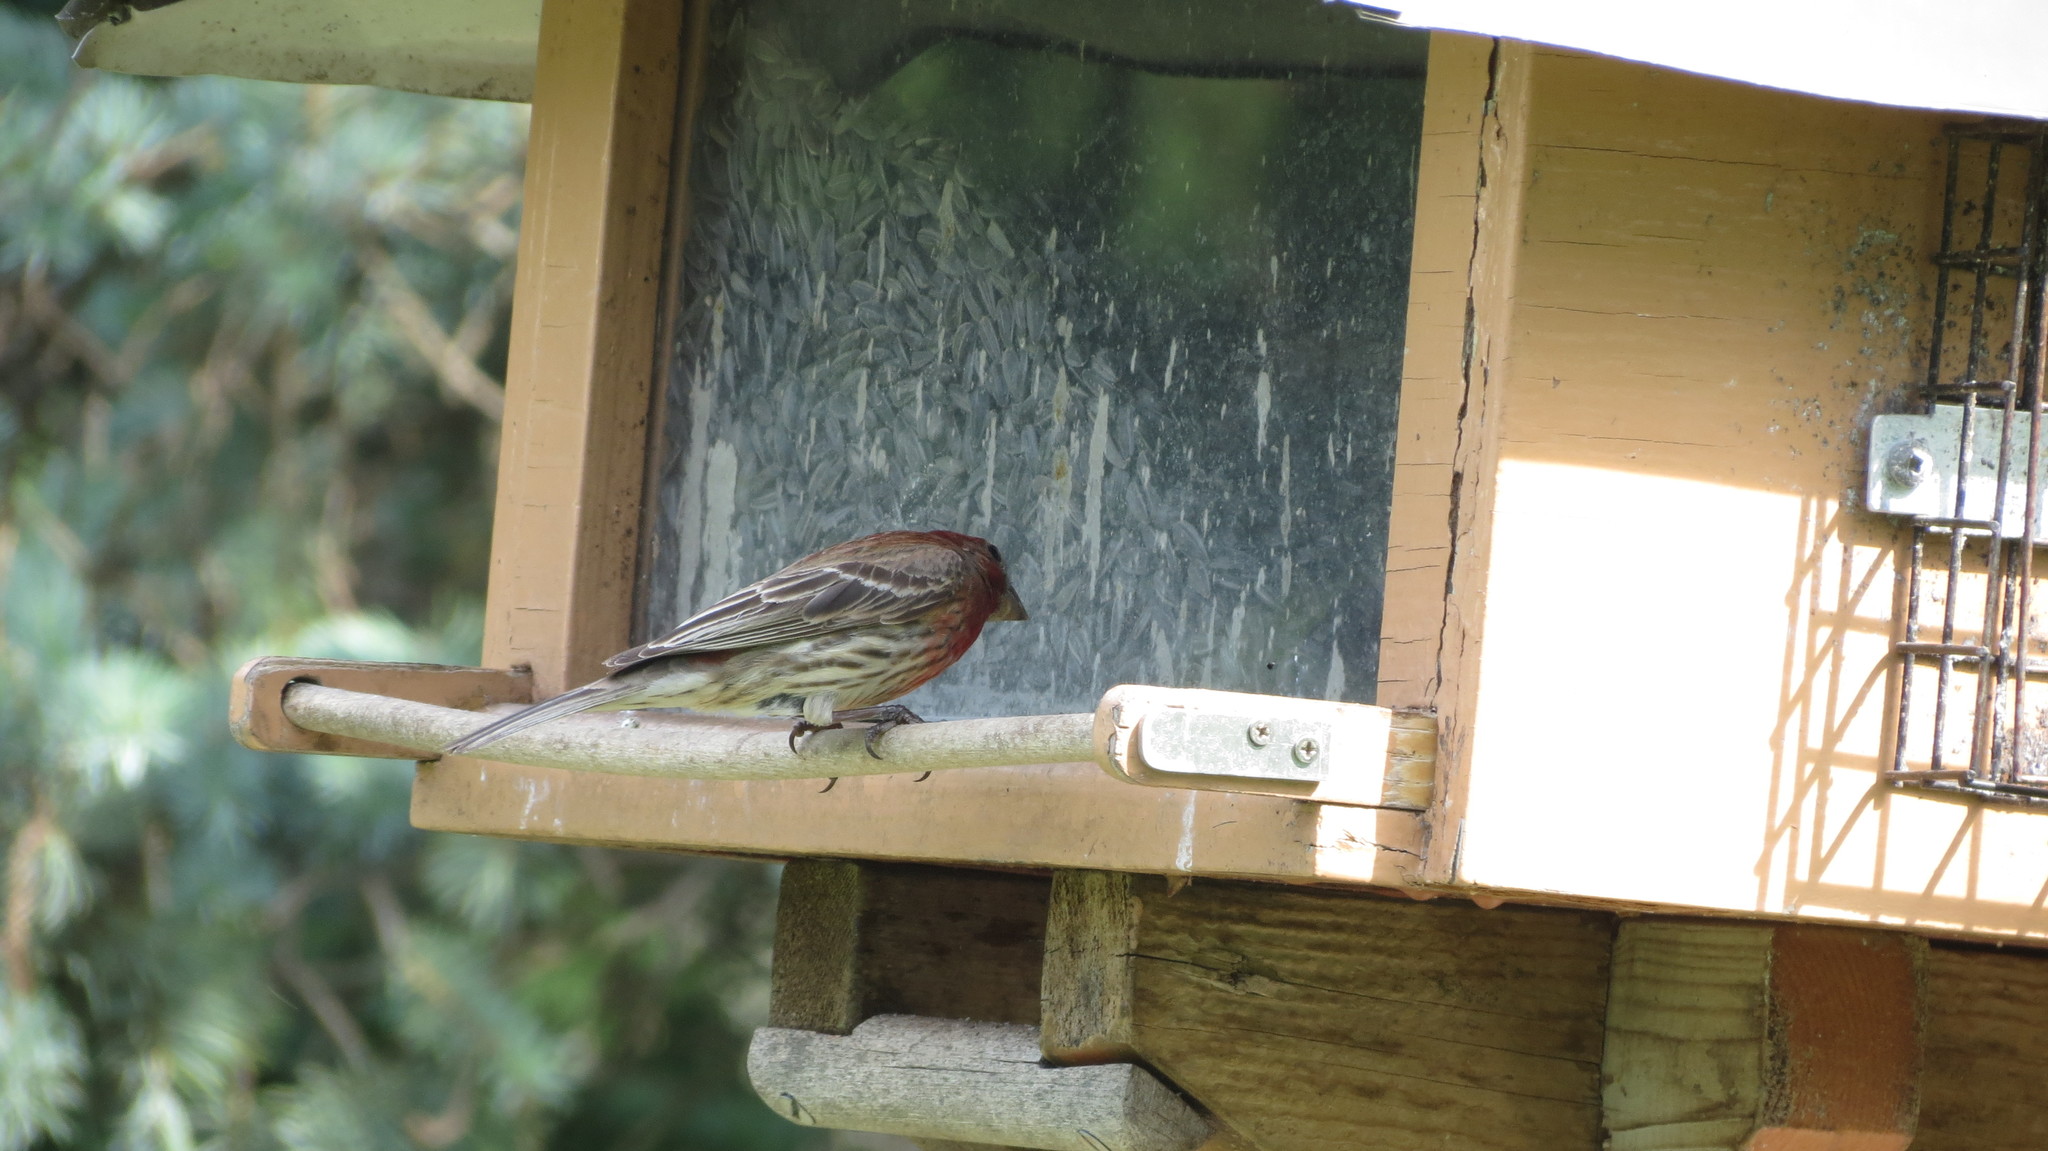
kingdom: Animalia
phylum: Chordata
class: Aves
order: Passeriformes
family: Fringillidae
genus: Haemorhous
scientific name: Haemorhous mexicanus
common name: House finch
